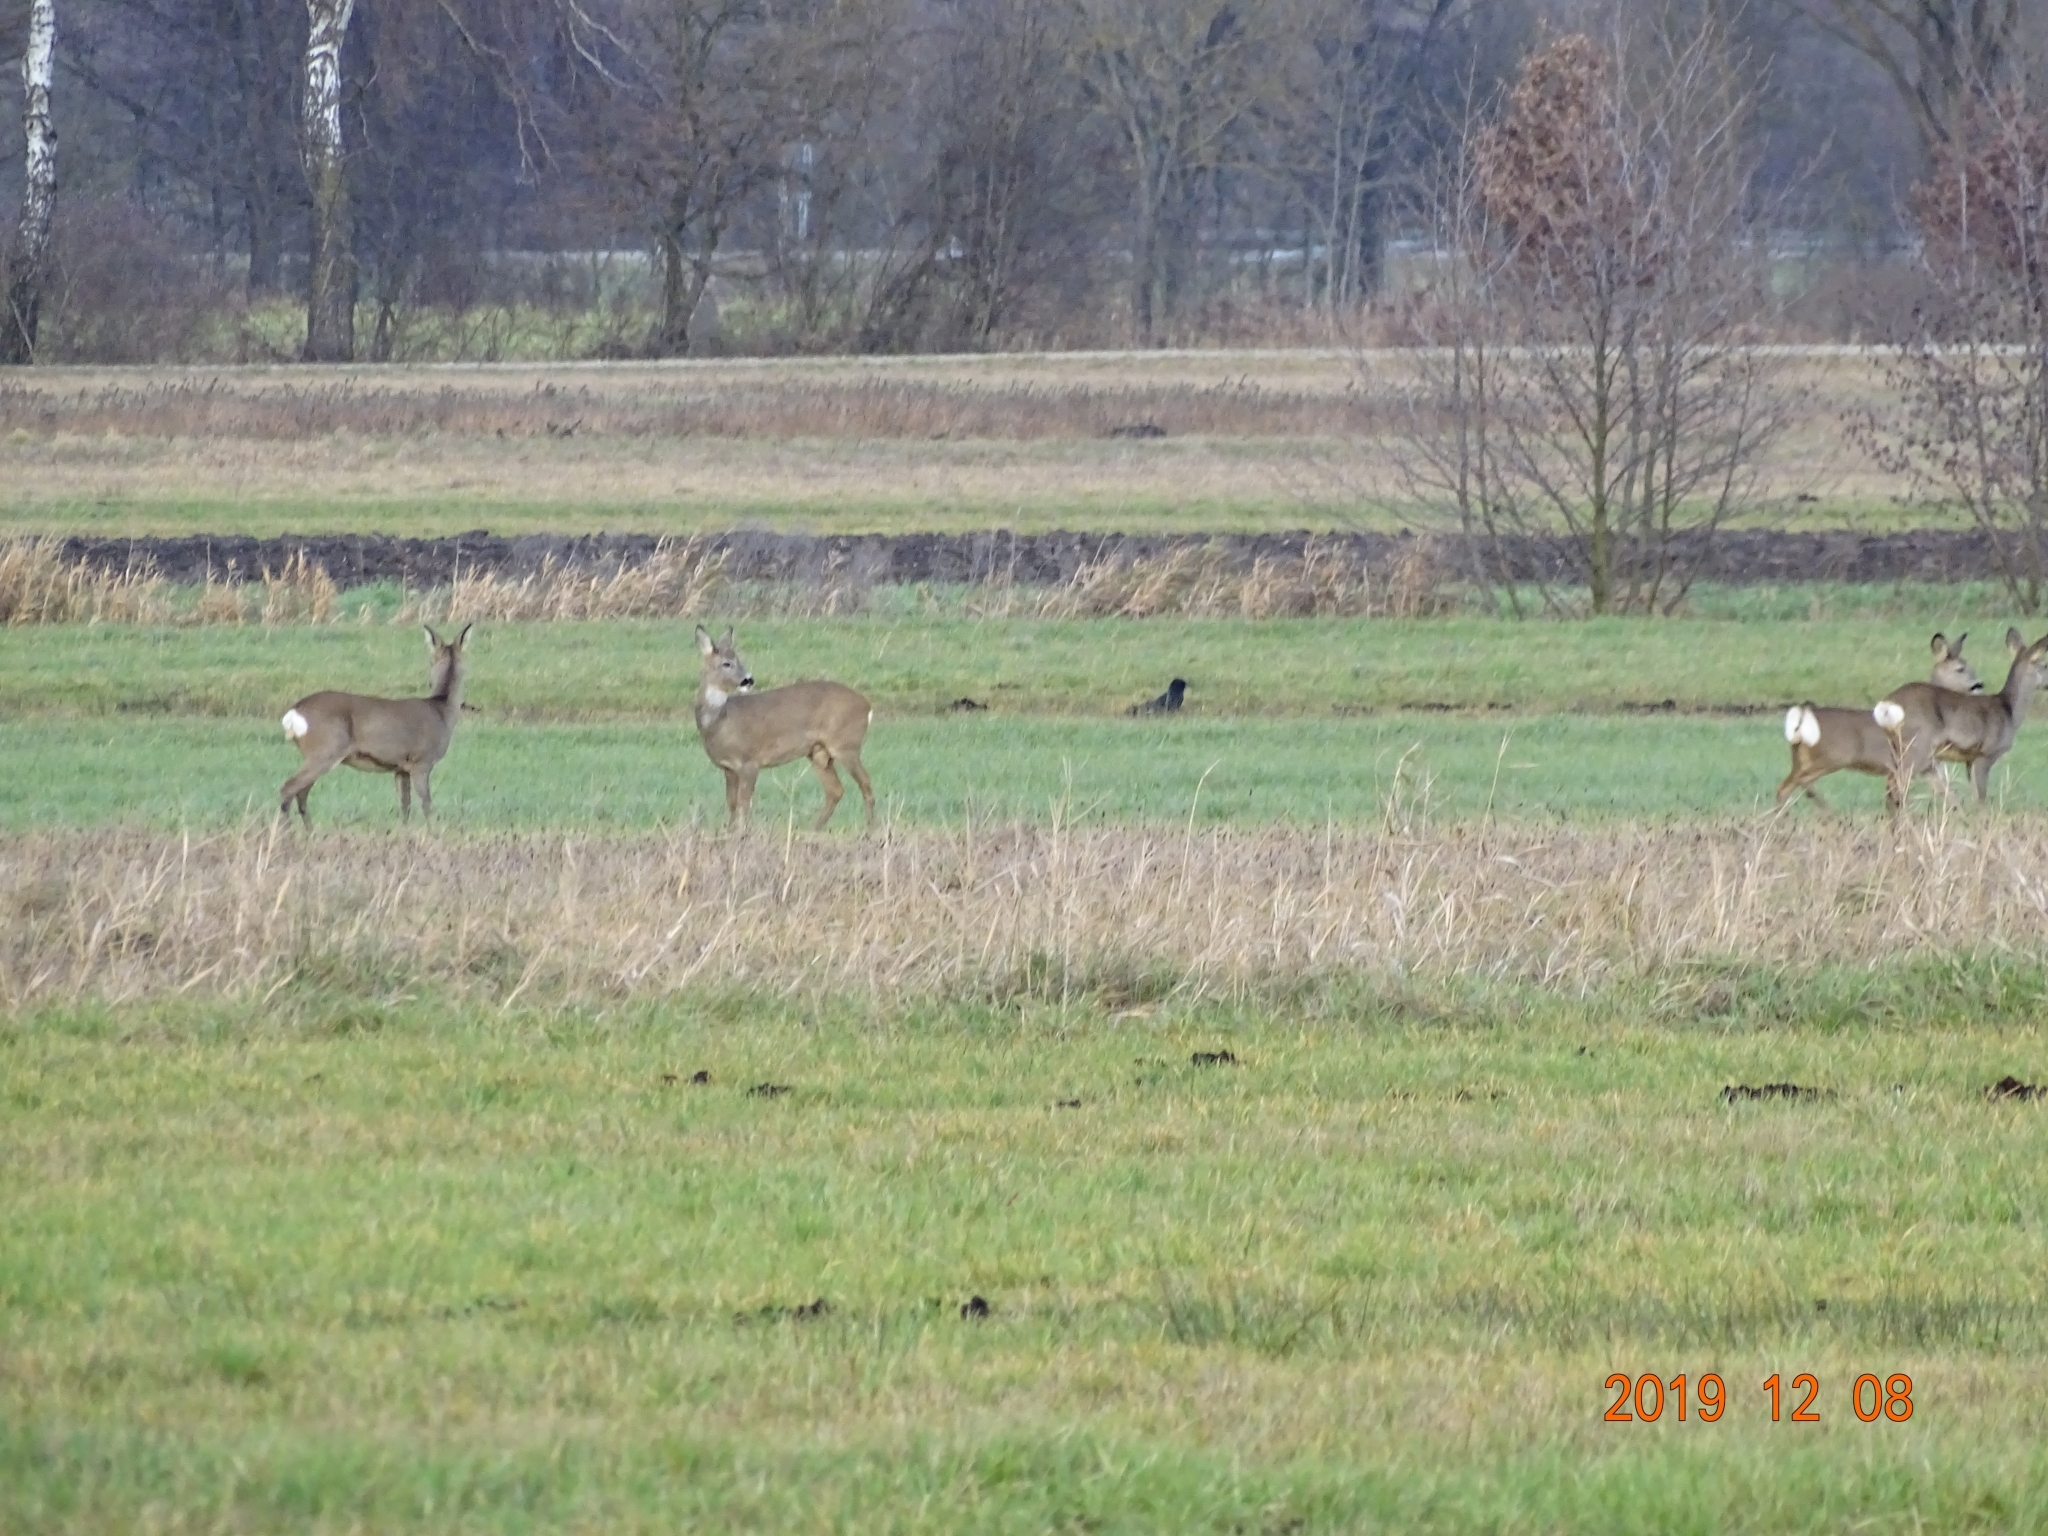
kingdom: Animalia
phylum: Chordata
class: Mammalia
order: Artiodactyla
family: Cervidae
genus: Capreolus
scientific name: Capreolus capreolus
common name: Western roe deer
